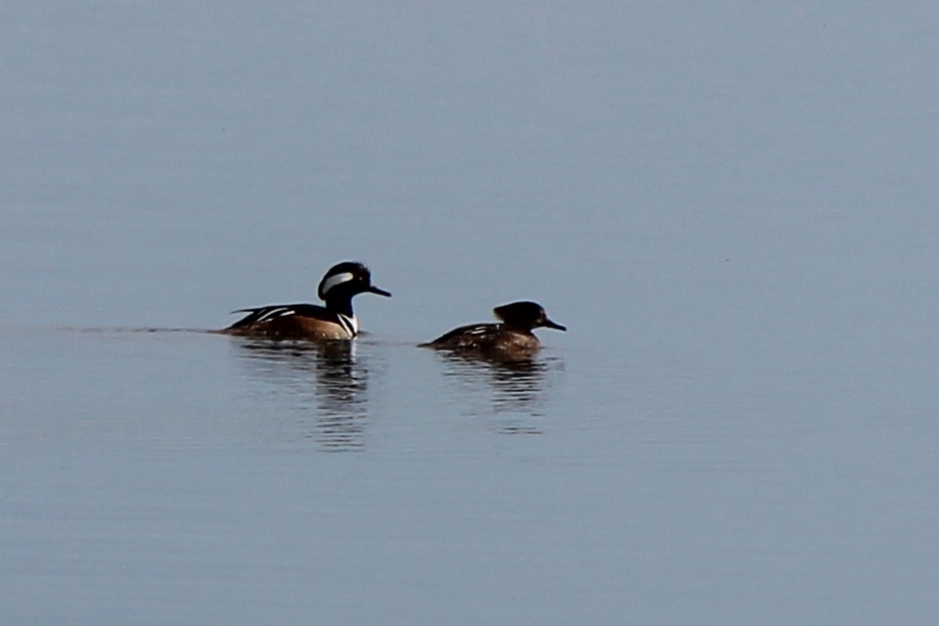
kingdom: Animalia
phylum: Chordata
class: Aves
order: Anseriformes
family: Anatidae
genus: Lophodytes
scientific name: Lophodytes cucullatus
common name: Hooded merganser
